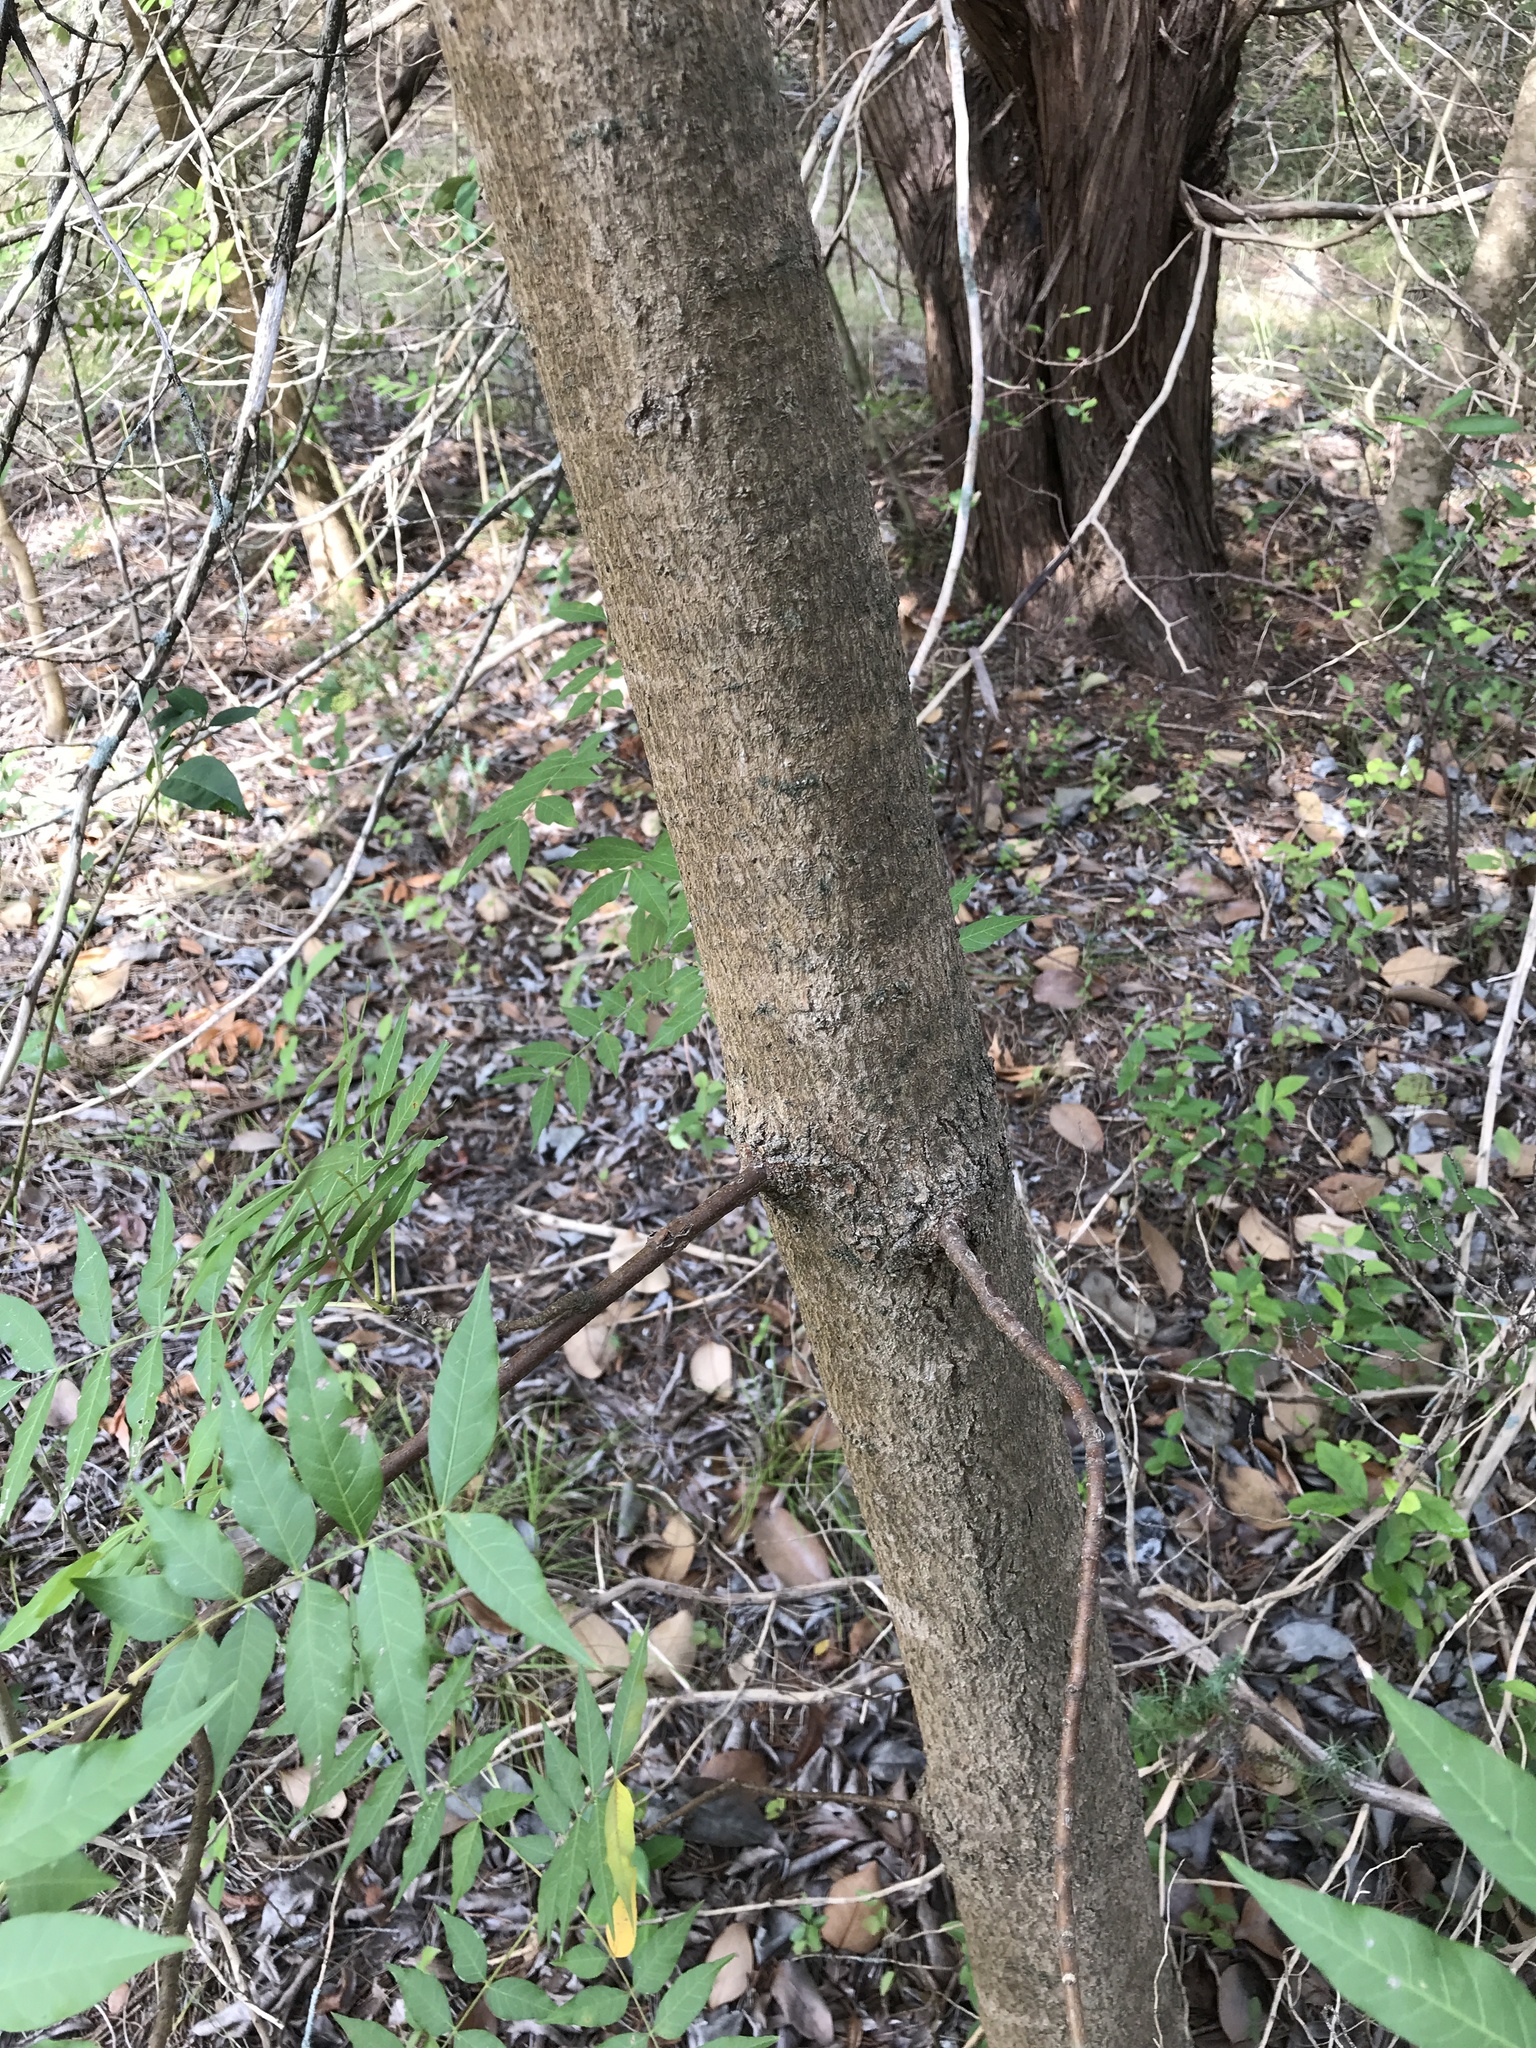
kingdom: Plantae
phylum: Tracheophyta
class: Magnoliopsida
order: Sapindales
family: Anacardiaceae
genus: Pistacia
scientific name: Pistacia chinensis
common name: Chinese pistache
